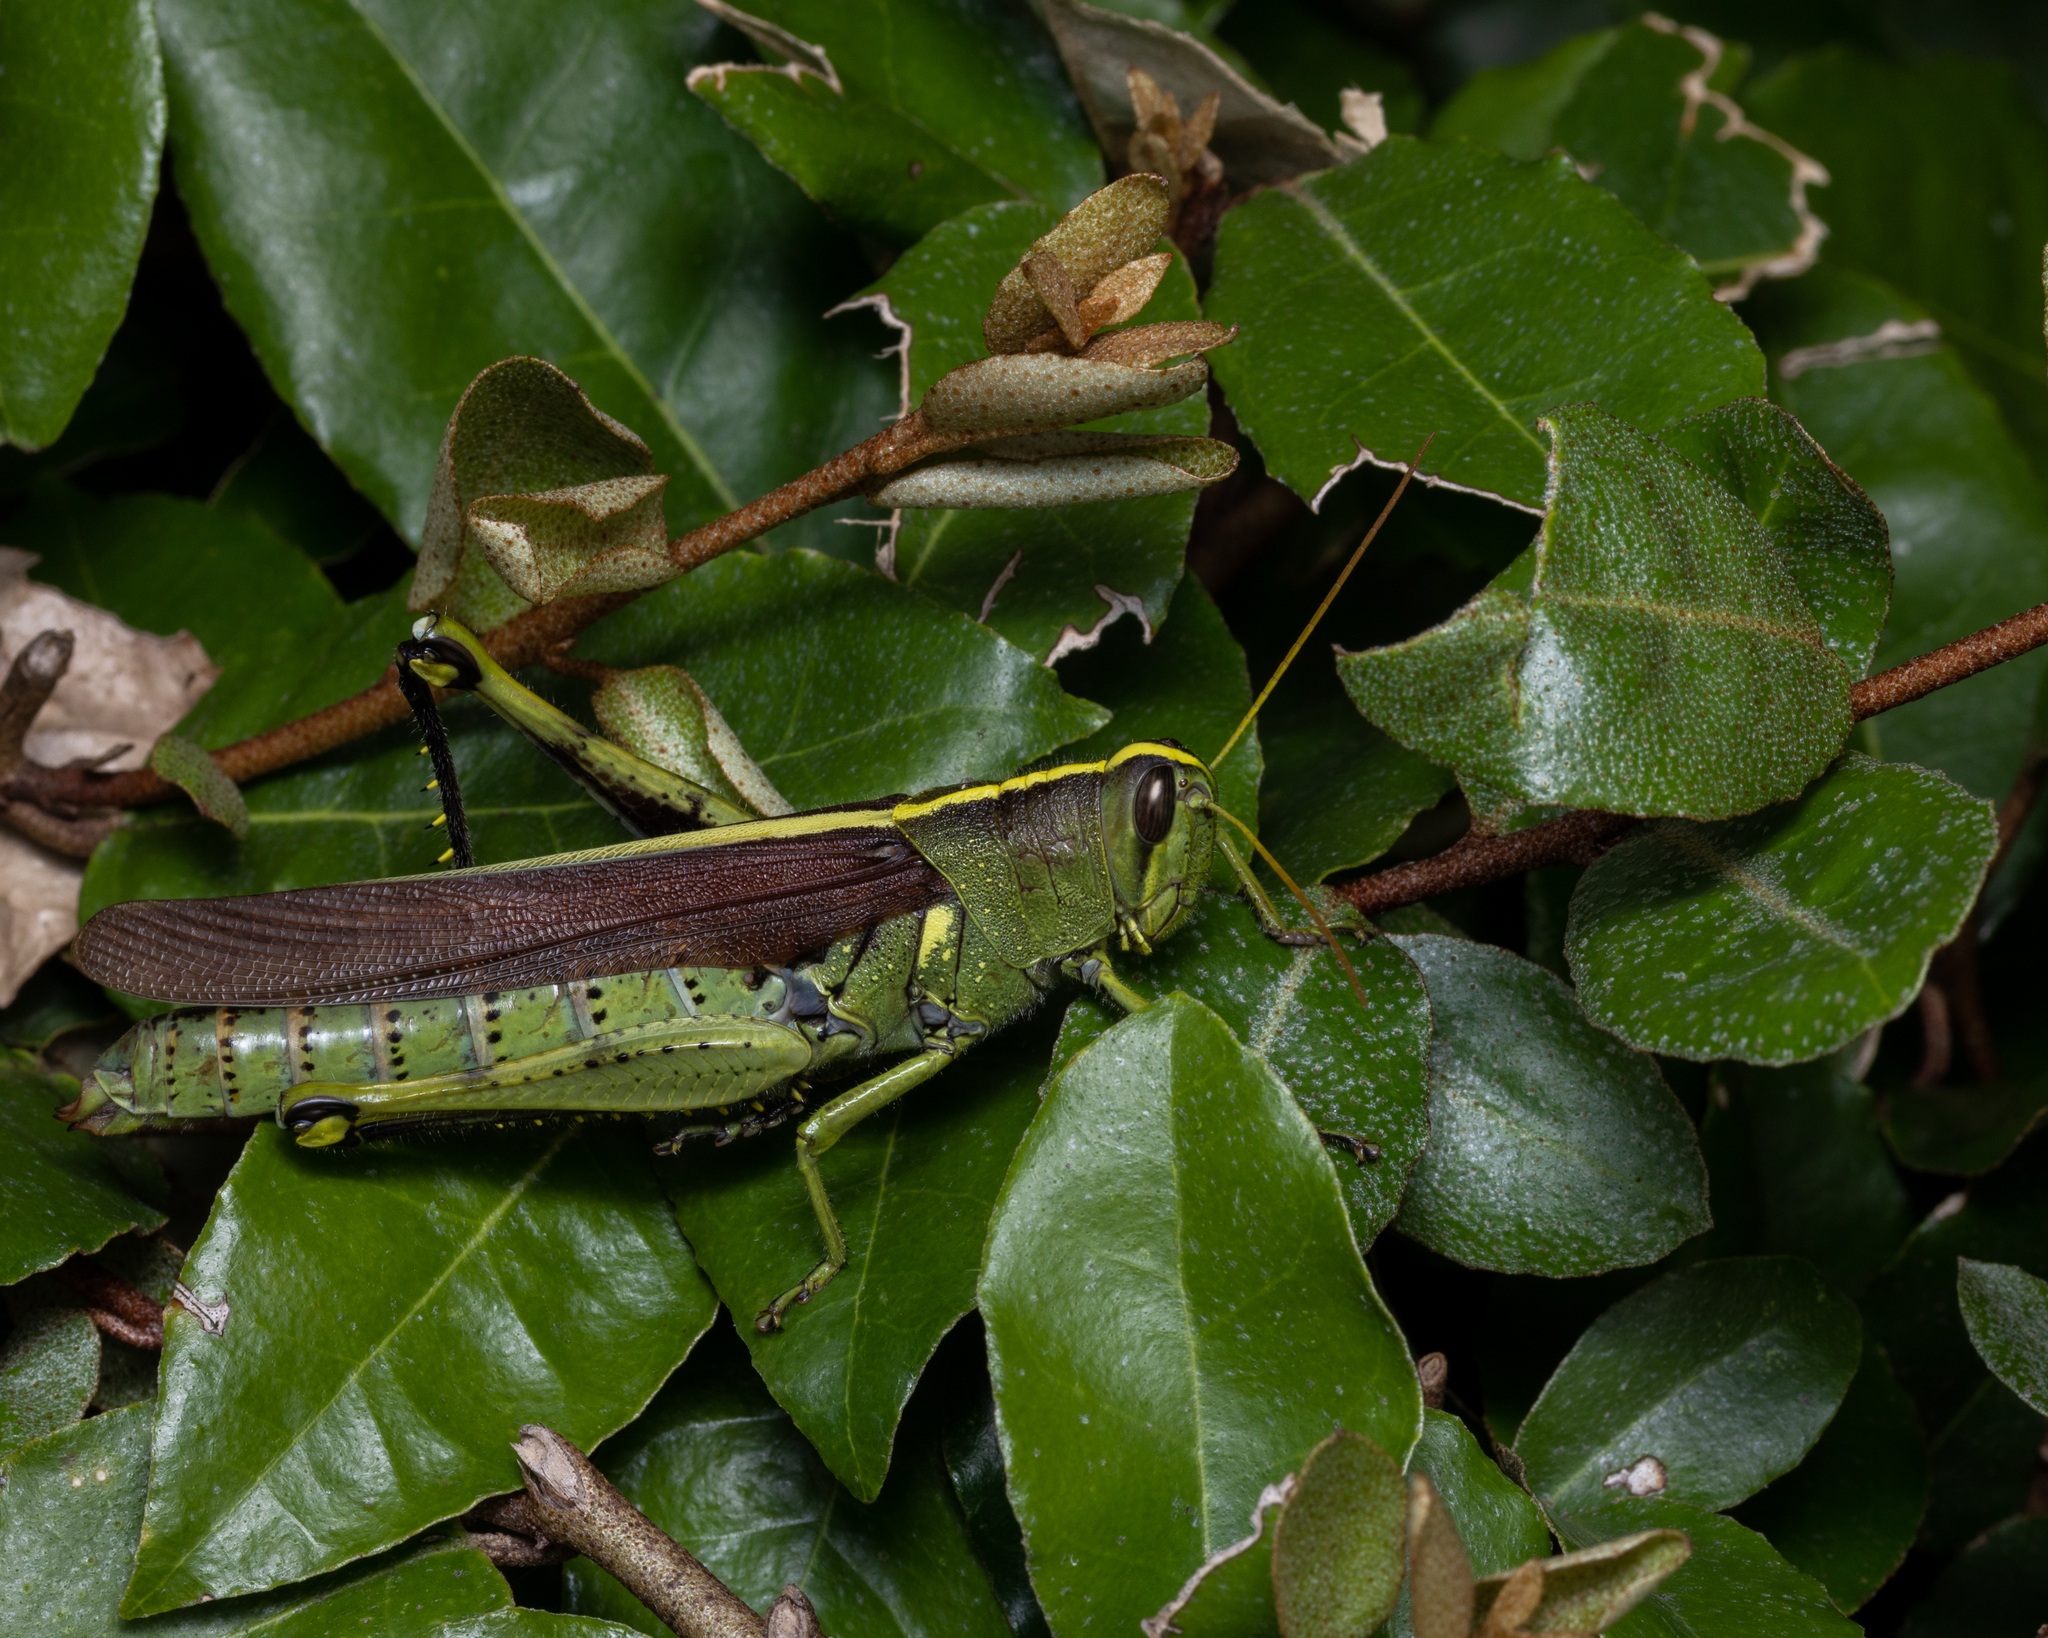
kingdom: Animalia
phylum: Arthropoda
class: Insecta
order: Orthoptera
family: Acrididae
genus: Schistocerca
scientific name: Schistocerca obscura
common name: Obscure bird grasshopper
